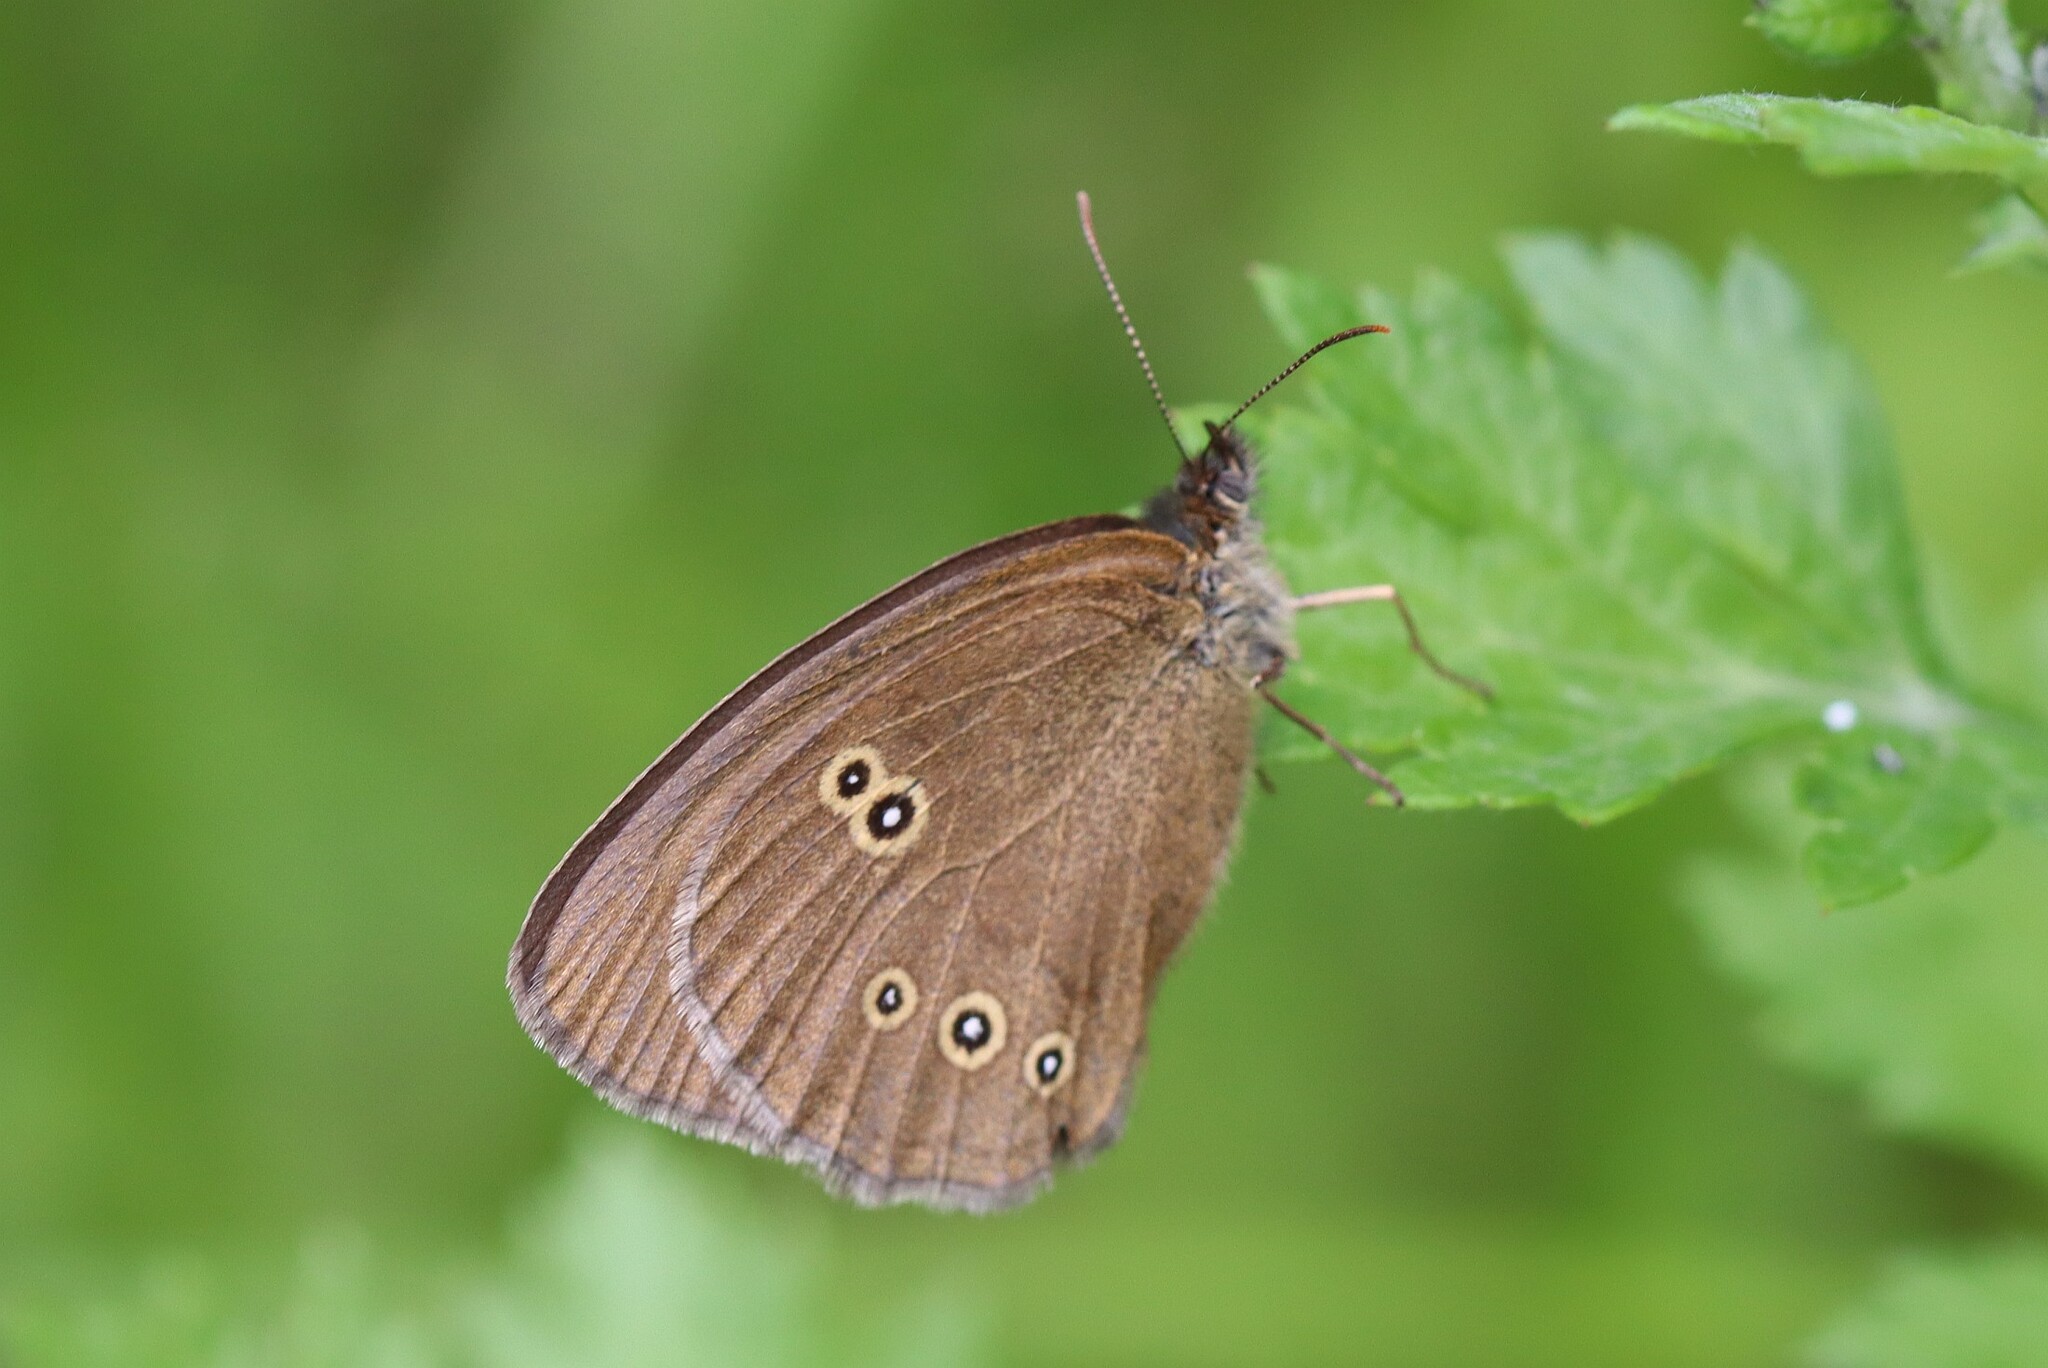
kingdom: Animalia
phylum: Arthropoda
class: Insecta
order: Lepidoptera
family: Nymphalidae
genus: Aphantopus
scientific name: Aphantopus hyperantus
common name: Ringlet
